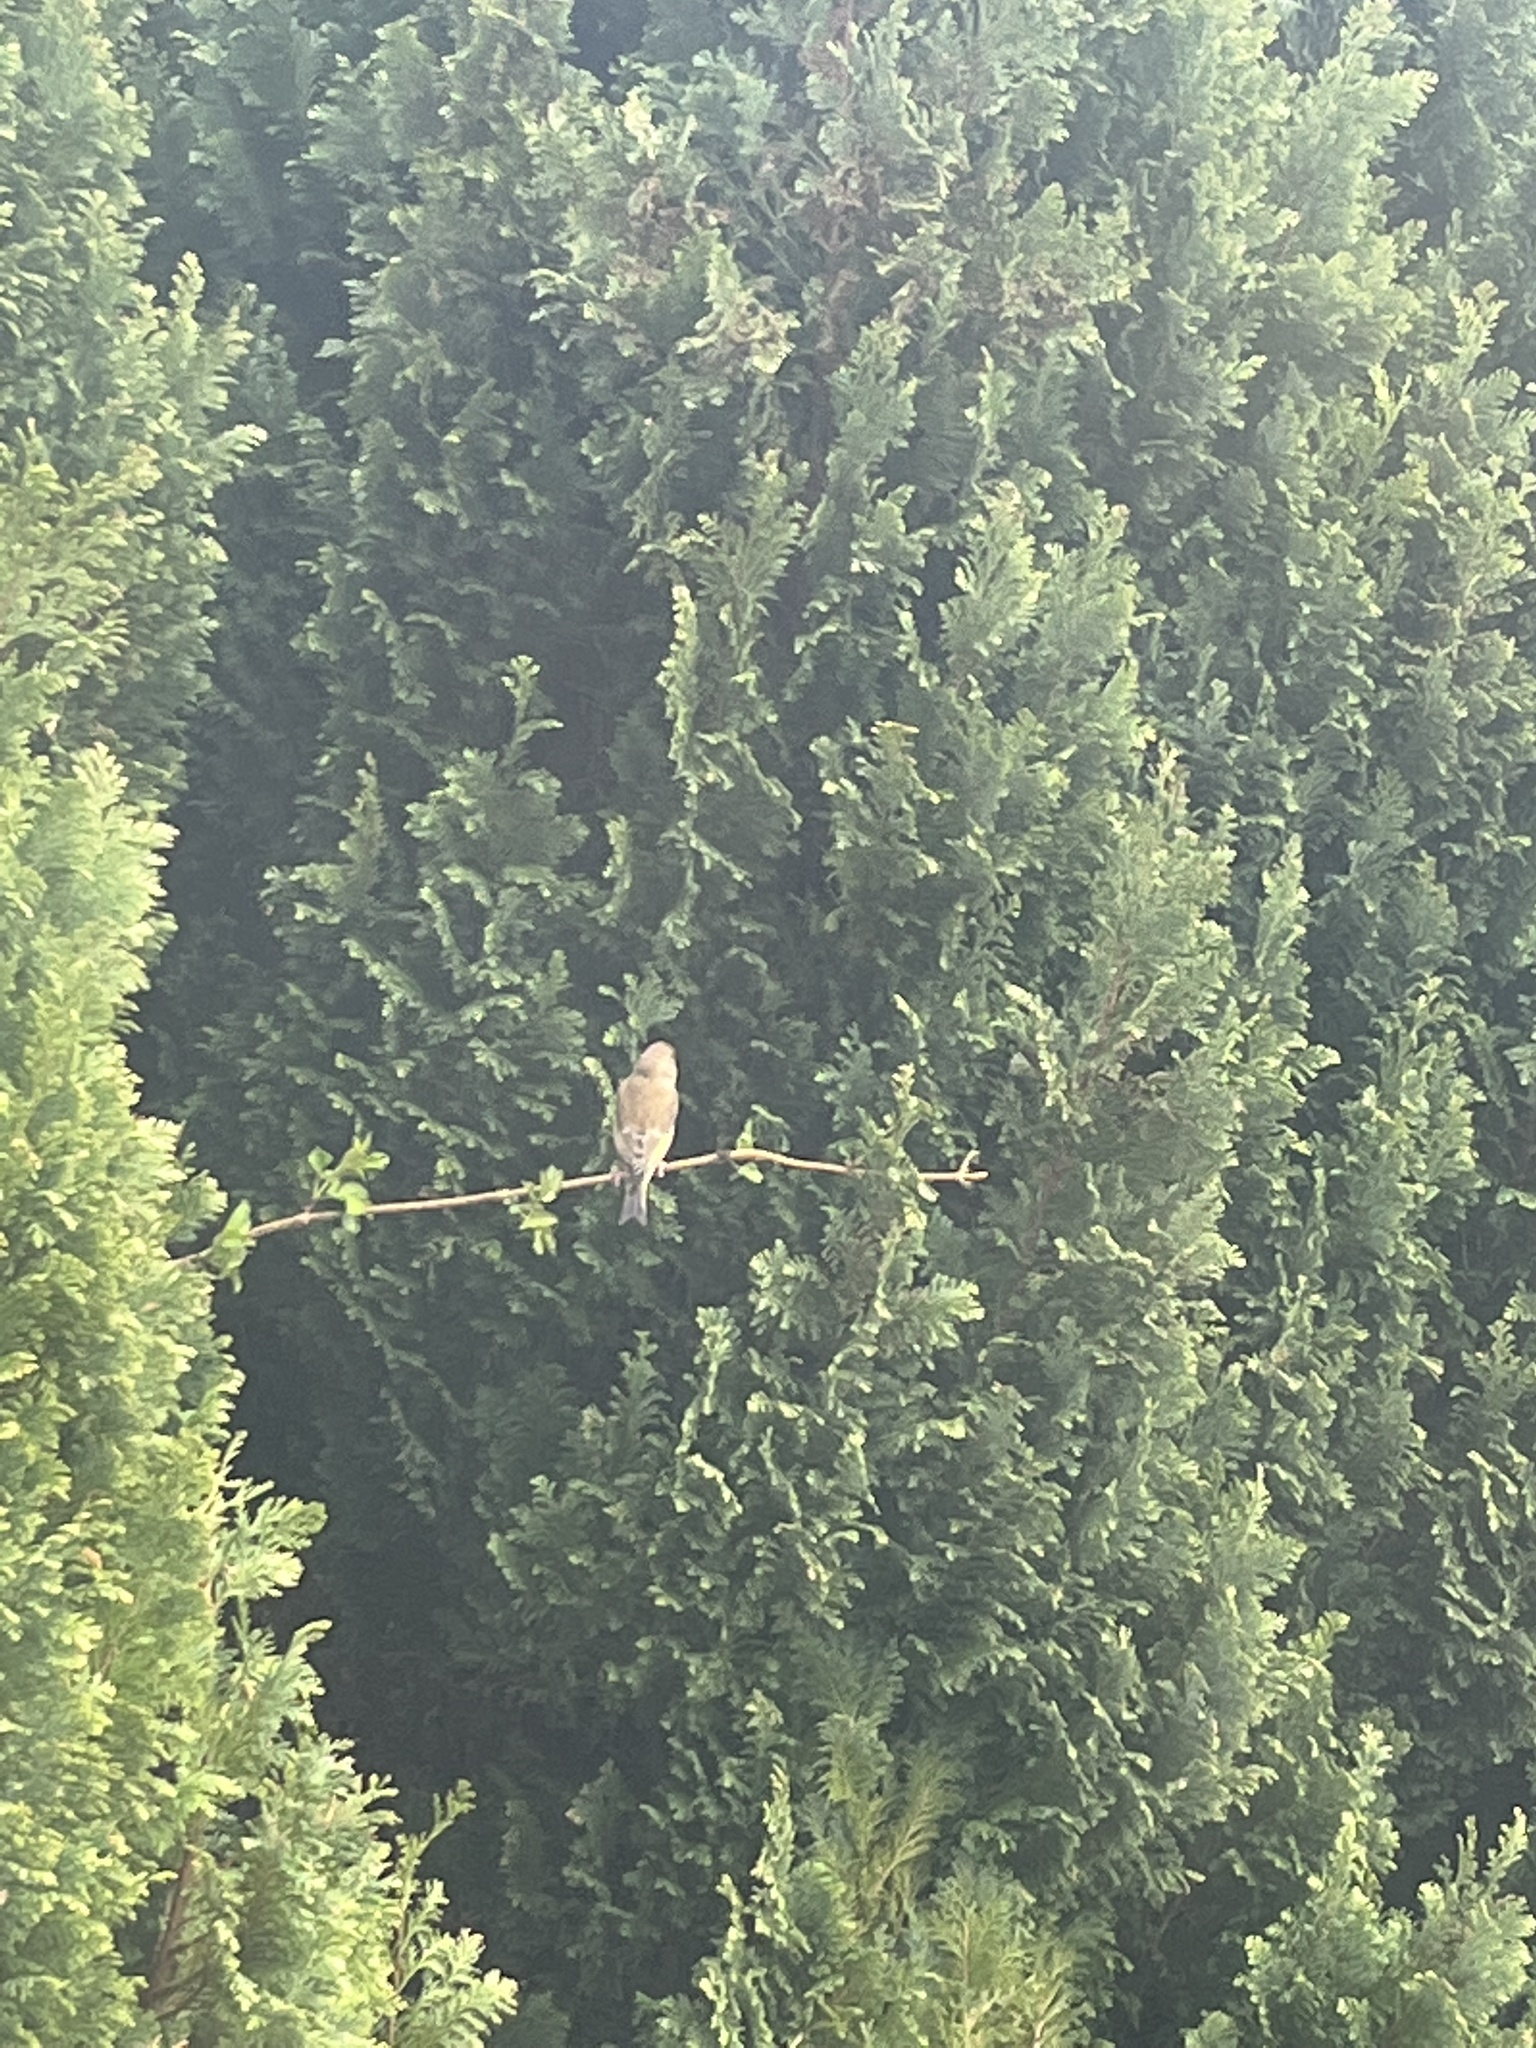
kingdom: Plantae
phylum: Tracheophyta
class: Liliopsida
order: Poales
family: Poaceae
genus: Chloris
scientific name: Chloris chloris
